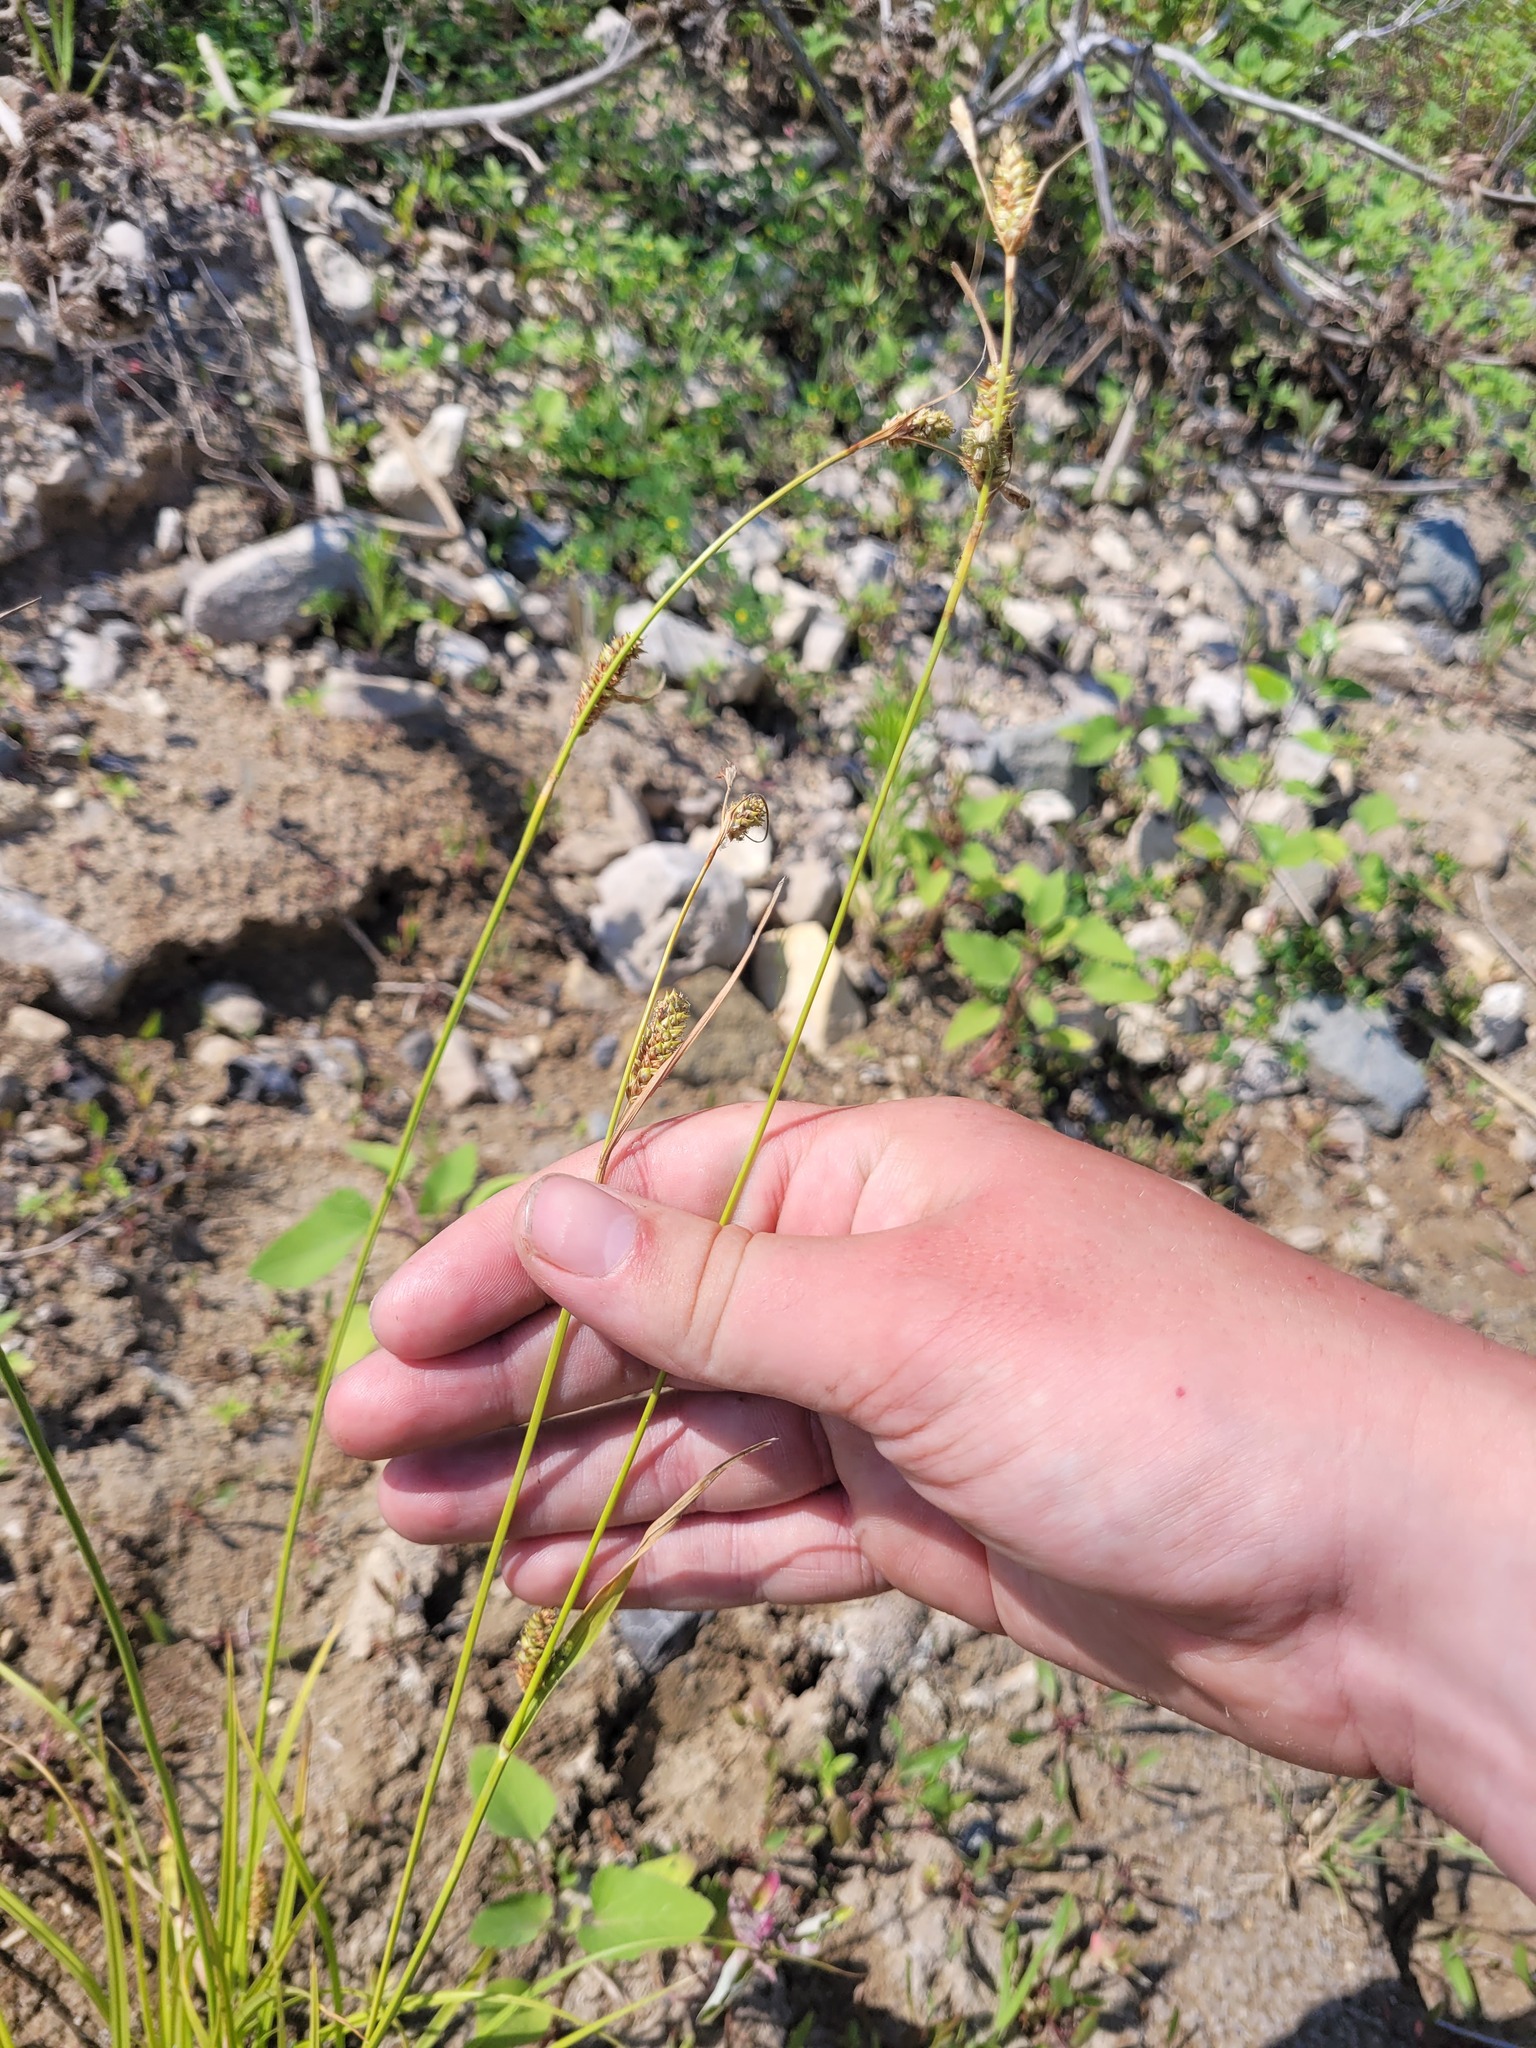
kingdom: Plantae
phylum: Tracheophyta
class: Liliopsida
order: Poales
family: Cyperaceae
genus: Carex
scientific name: Carex distans
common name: Distant sedge
